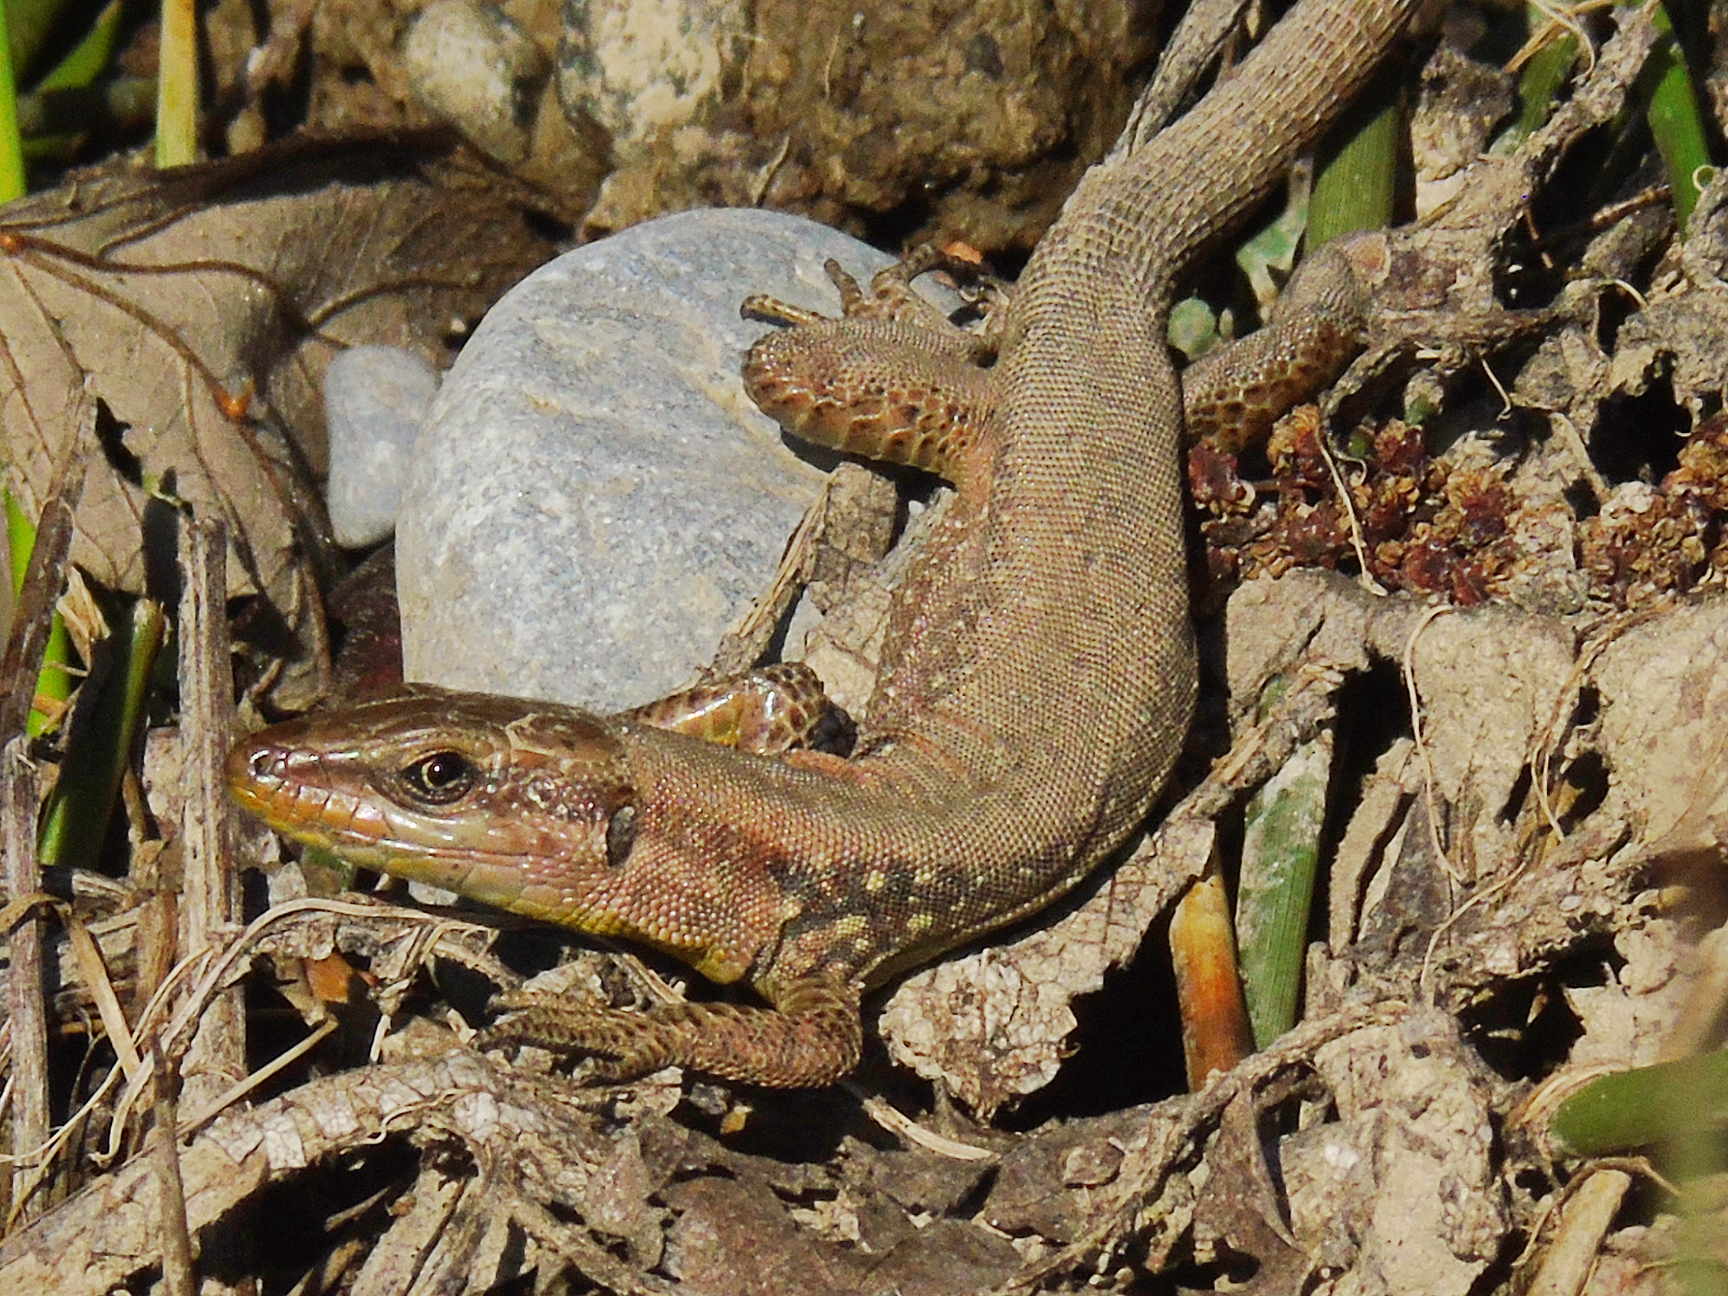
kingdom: Animalia
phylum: Chordata
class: Squamata
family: Lacertidae
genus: Phoenicolacerta
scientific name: Phoenicolacerta laevis
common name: Lebanon lizard
